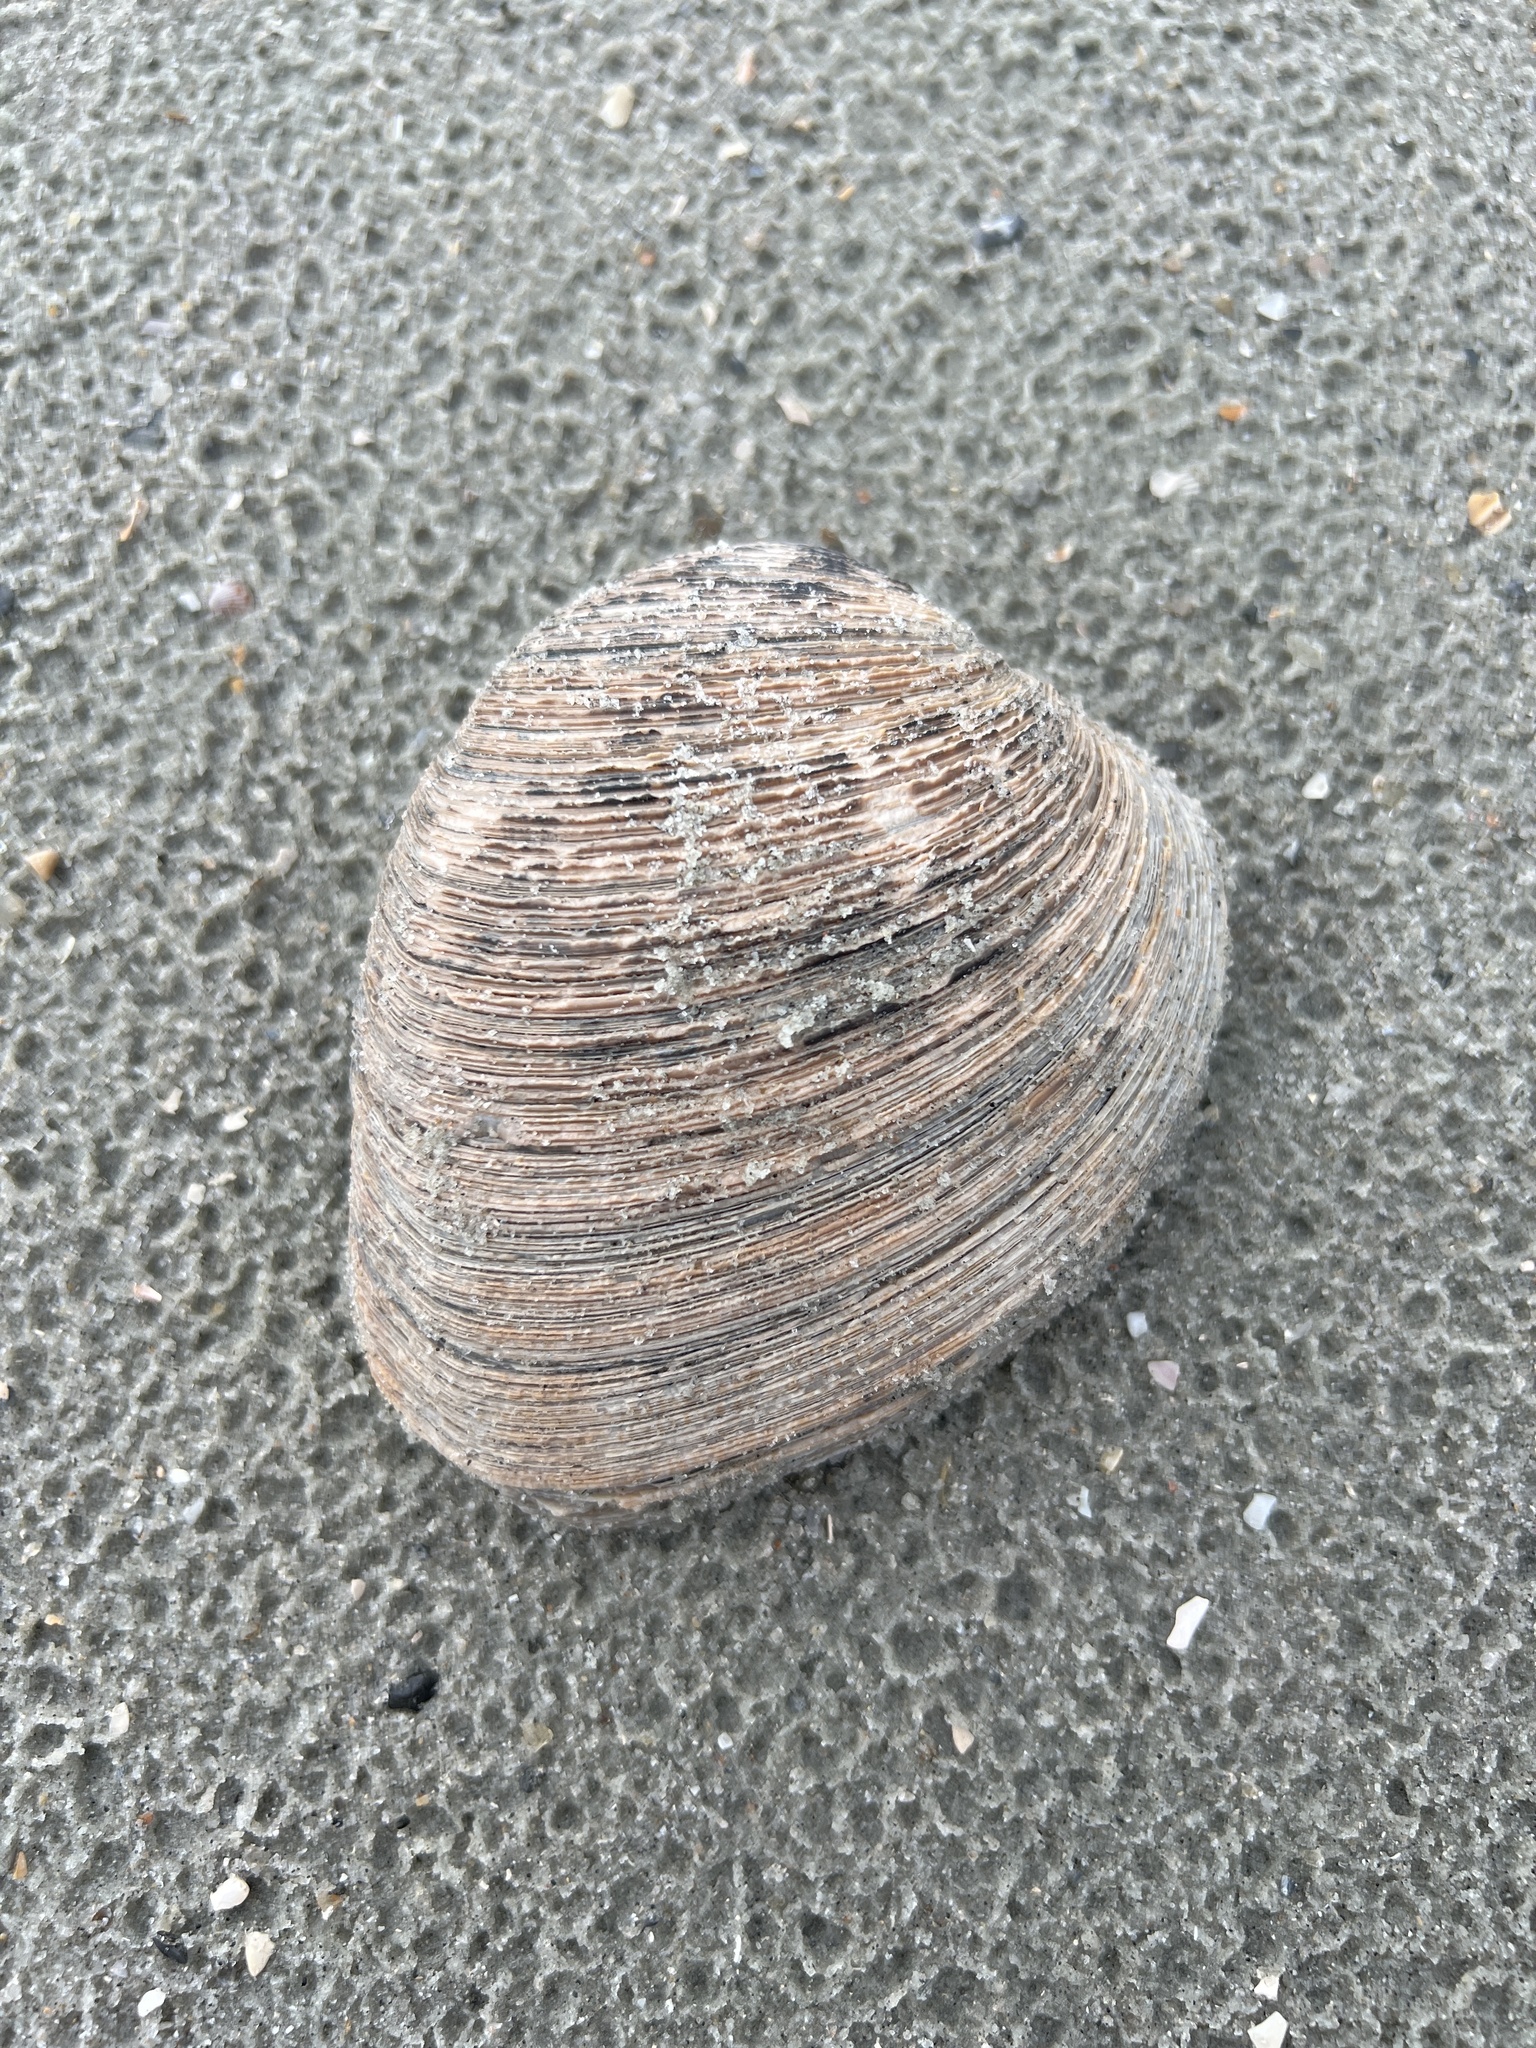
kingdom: Animalia
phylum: Mollusca
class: Bivalvia
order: Venerida
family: Veneridae
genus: Mercenaria
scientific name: Mercenaria campechiensis
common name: Südliche quahog-muschel
